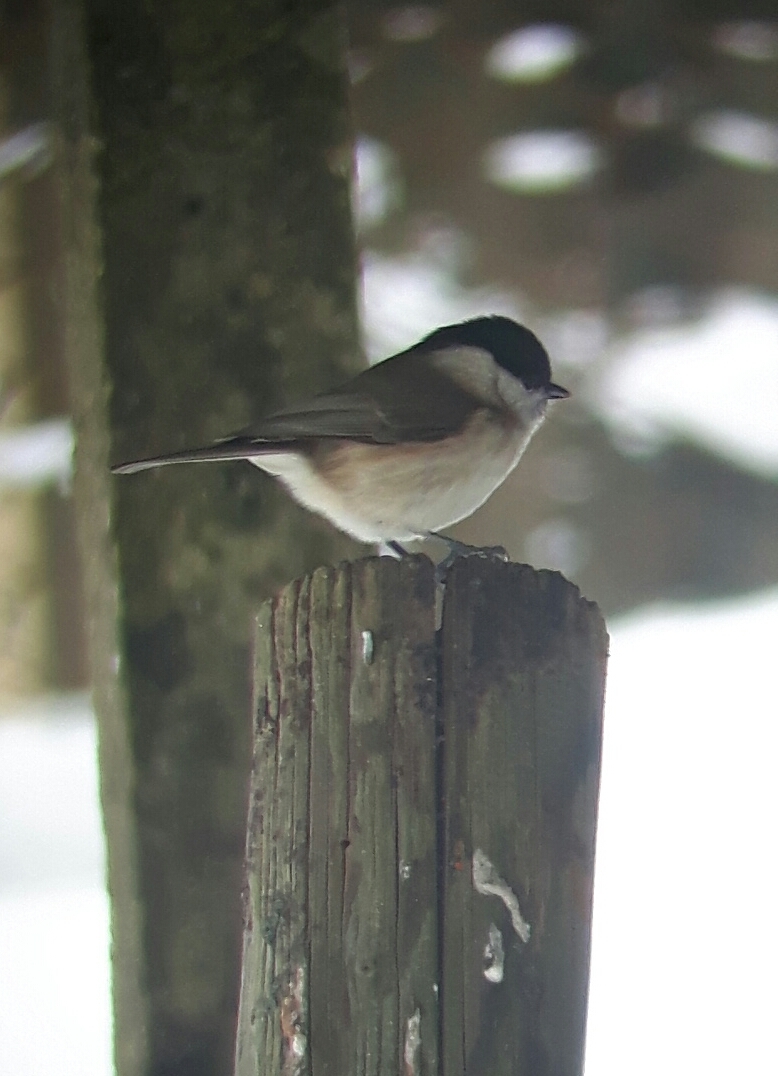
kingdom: Animalia
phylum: Chordata
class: Aves
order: Passeriformes
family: Paridae
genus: Poecile
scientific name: Poecile palustris
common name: Marsh tit
